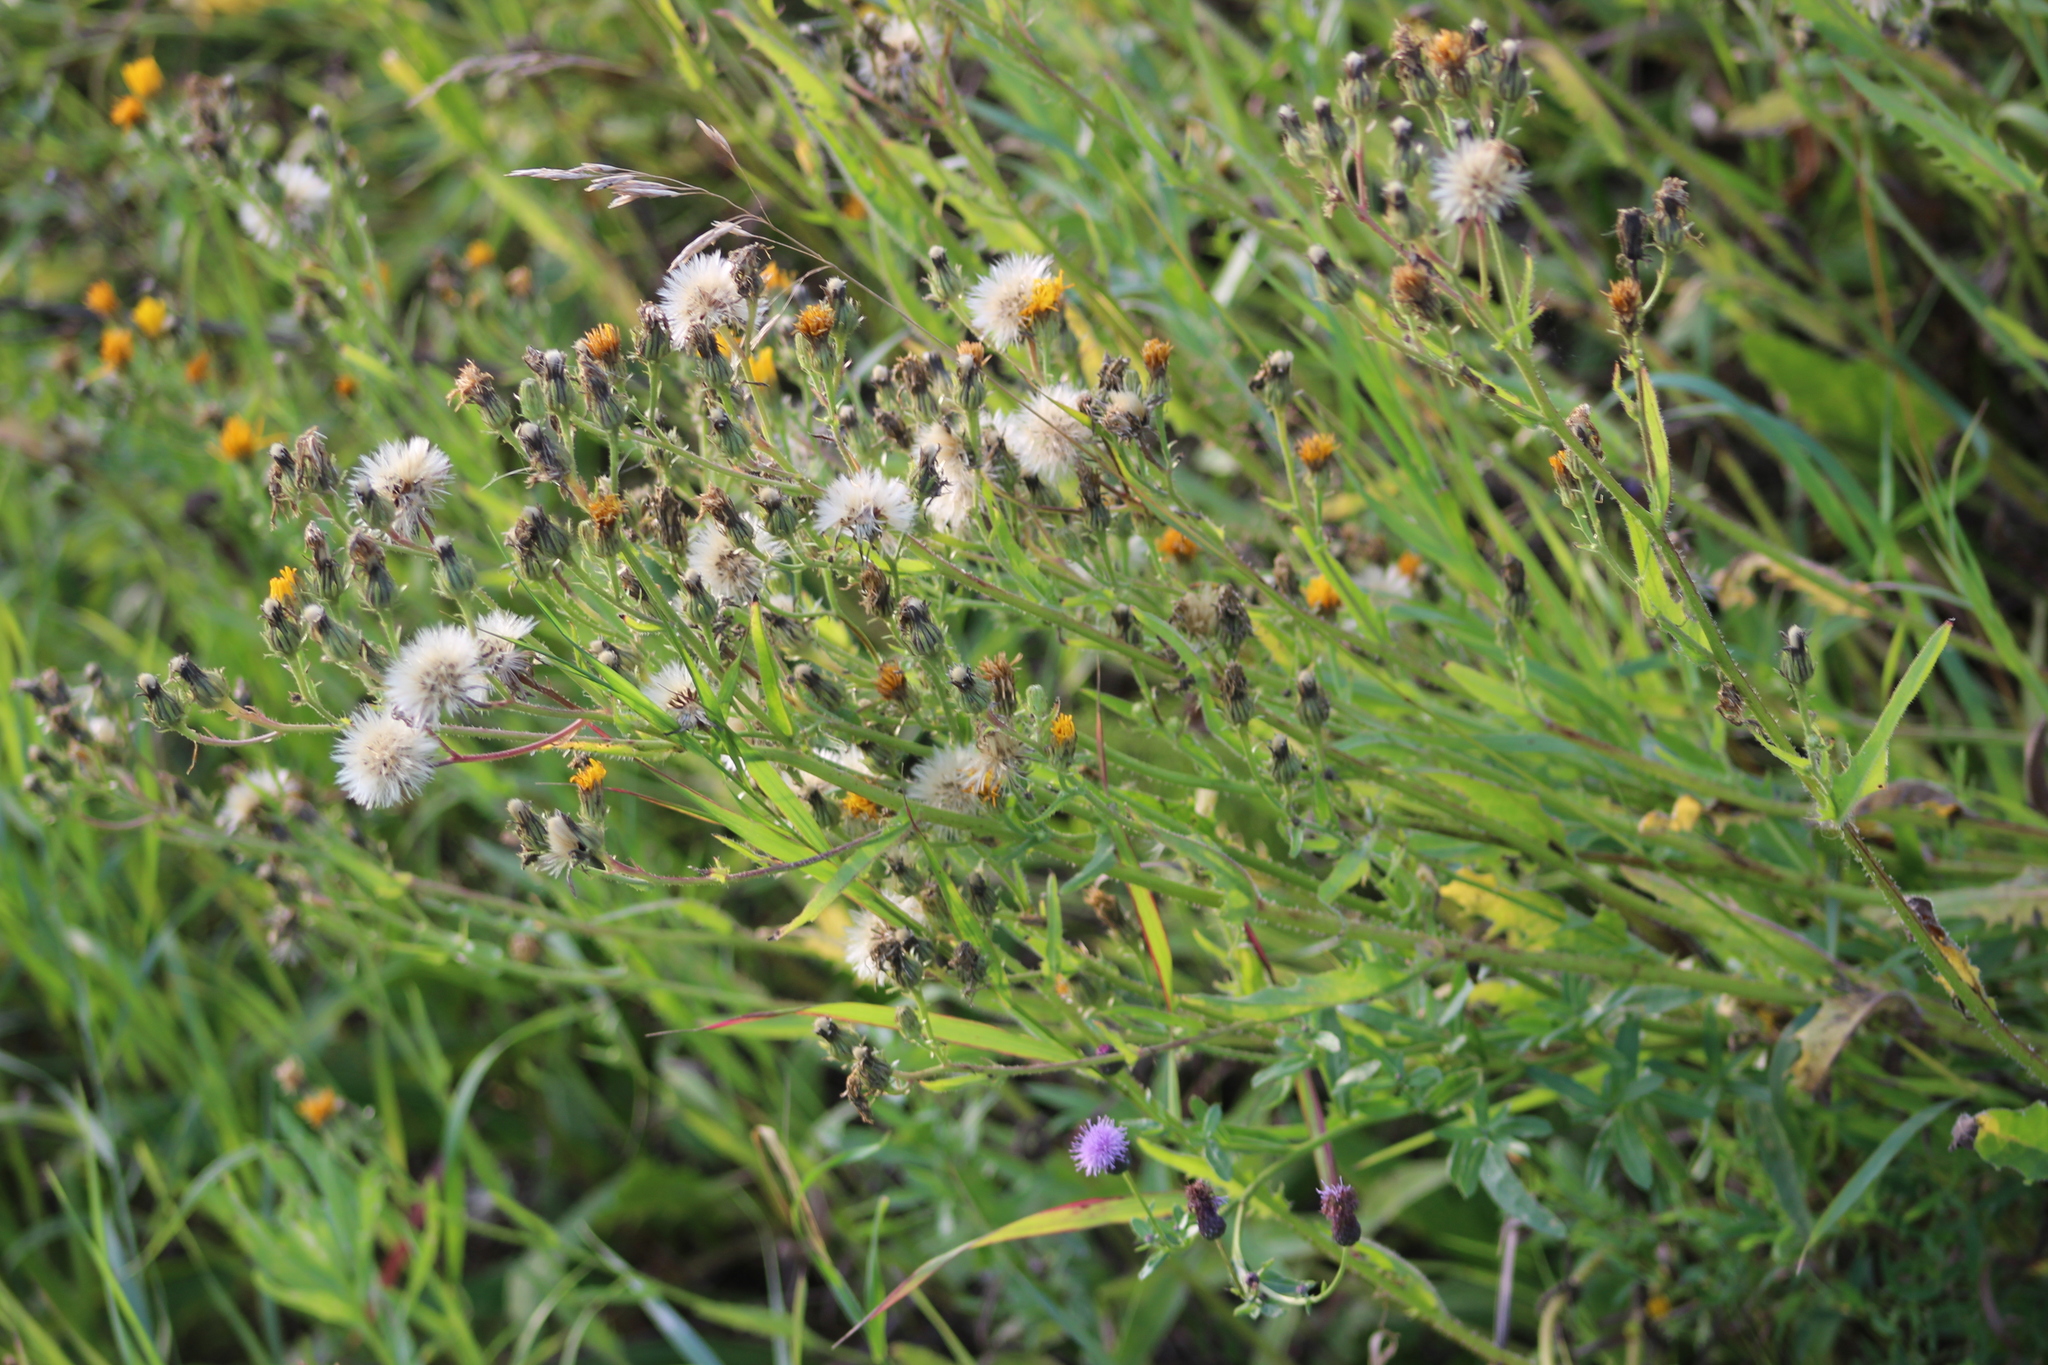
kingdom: Plantae
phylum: Tracheophyta
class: Magnoliopsida
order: Asterales
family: Asteraceae
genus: Picris
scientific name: Picris hieracioides
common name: Hawkweed oxtongue
